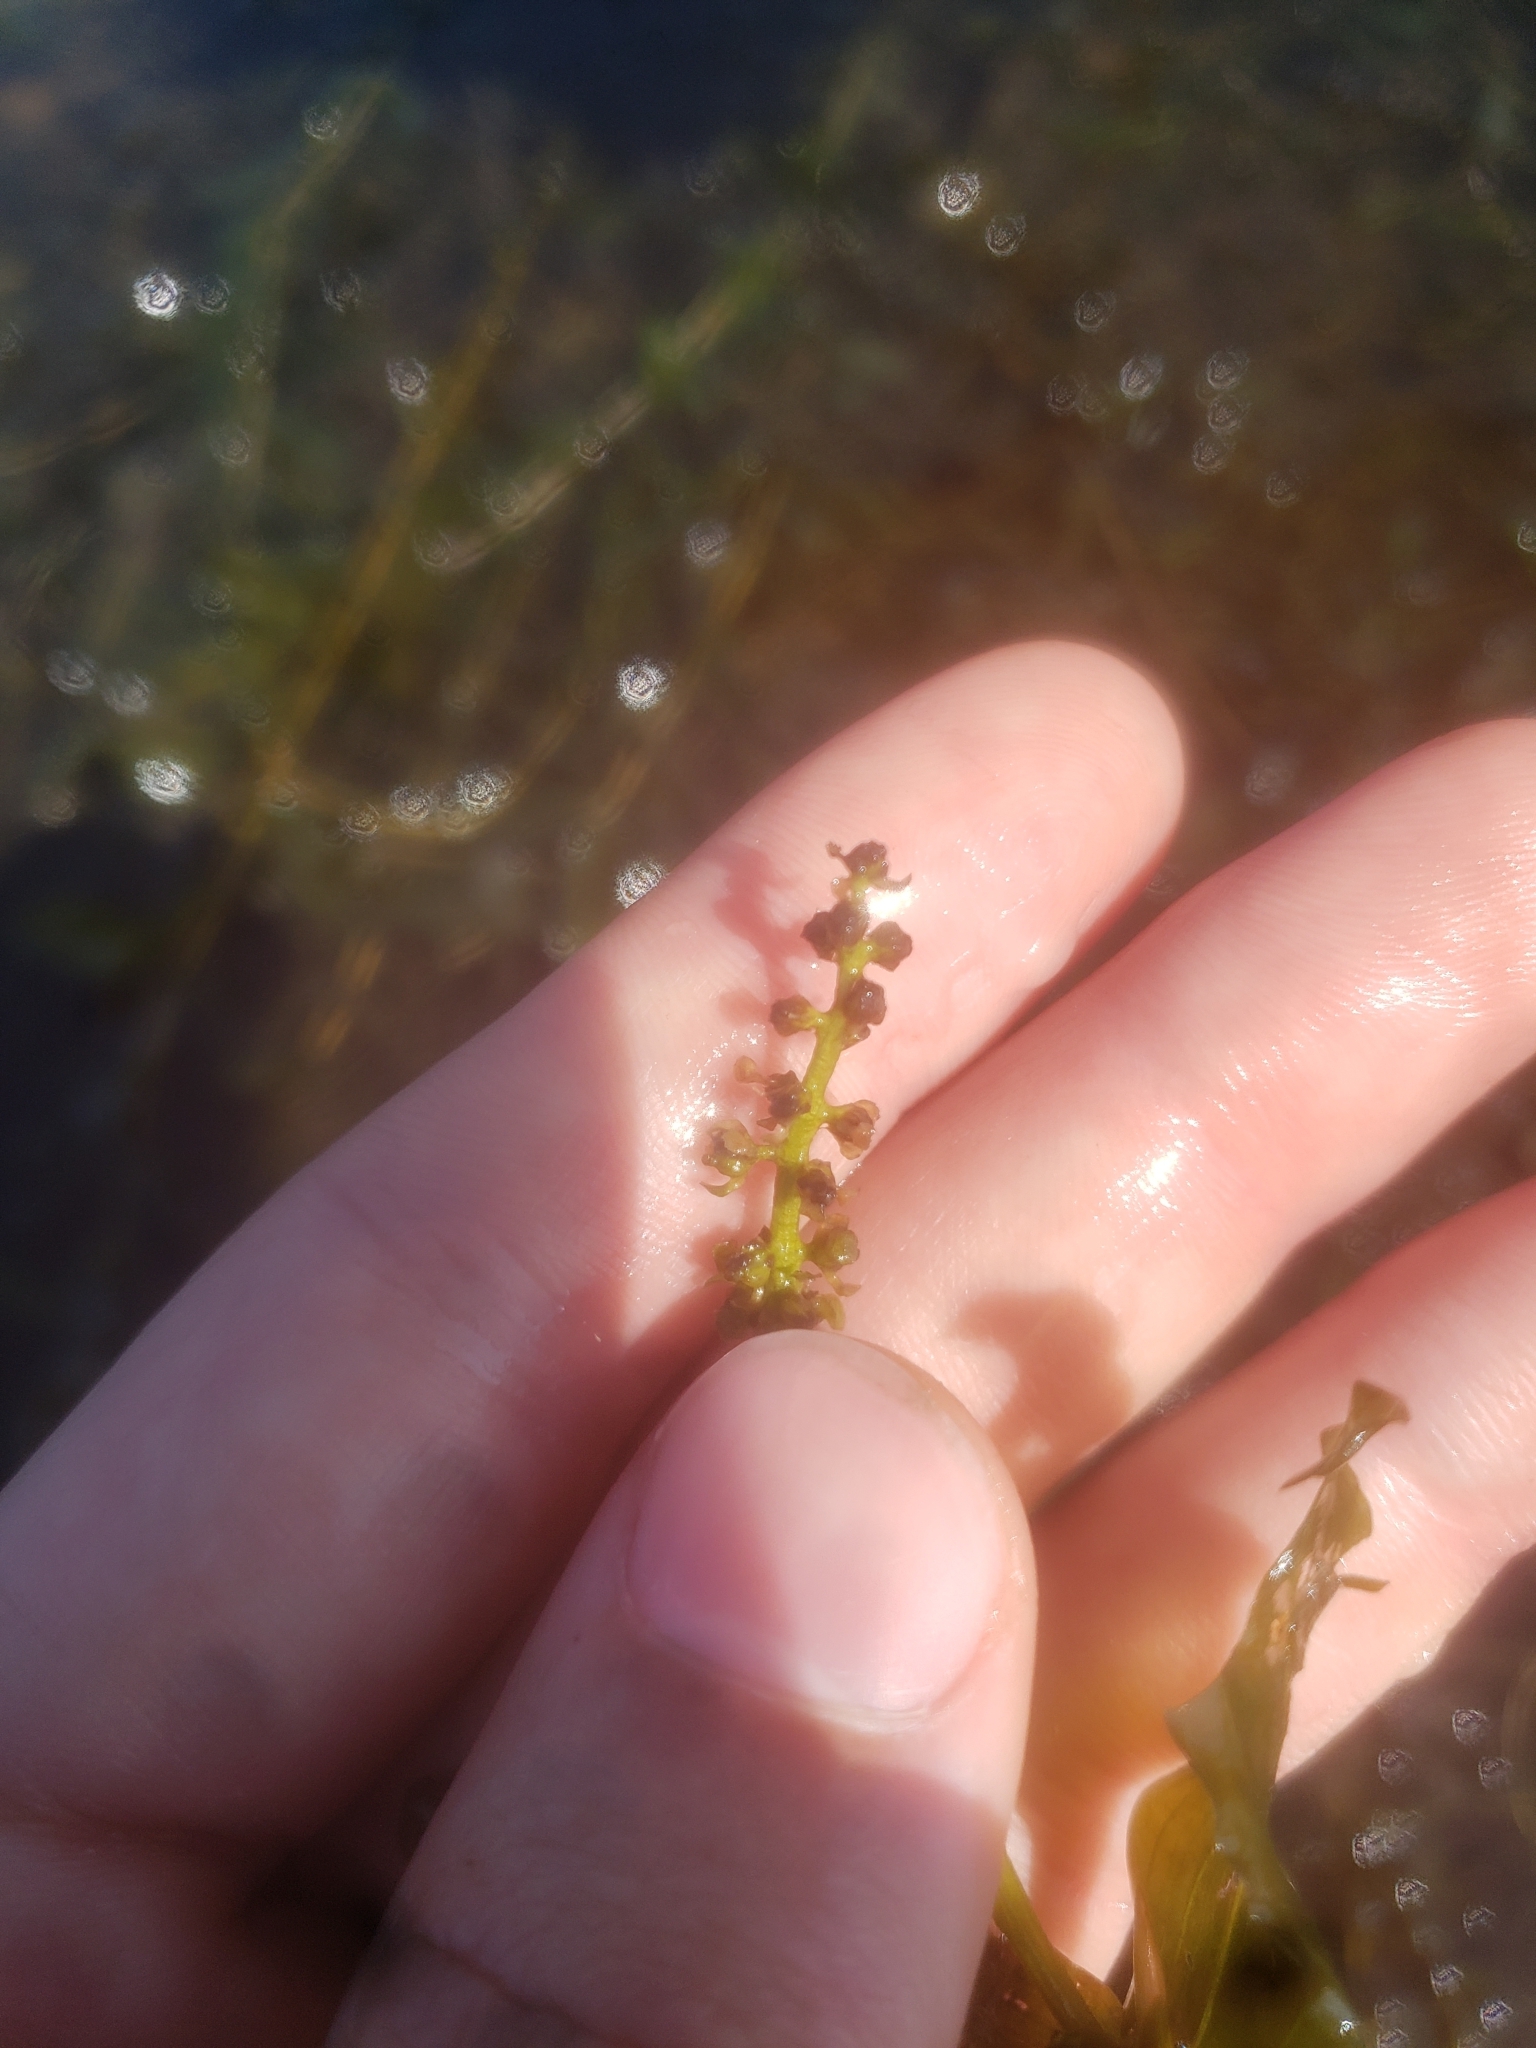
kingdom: Plantae
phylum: Tracheophyta
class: Liliopsida
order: Alismatales
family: Potamogetonaceae
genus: Potamogeton
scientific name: Potamogeton perfoliatus
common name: Perfoliate pondweed
